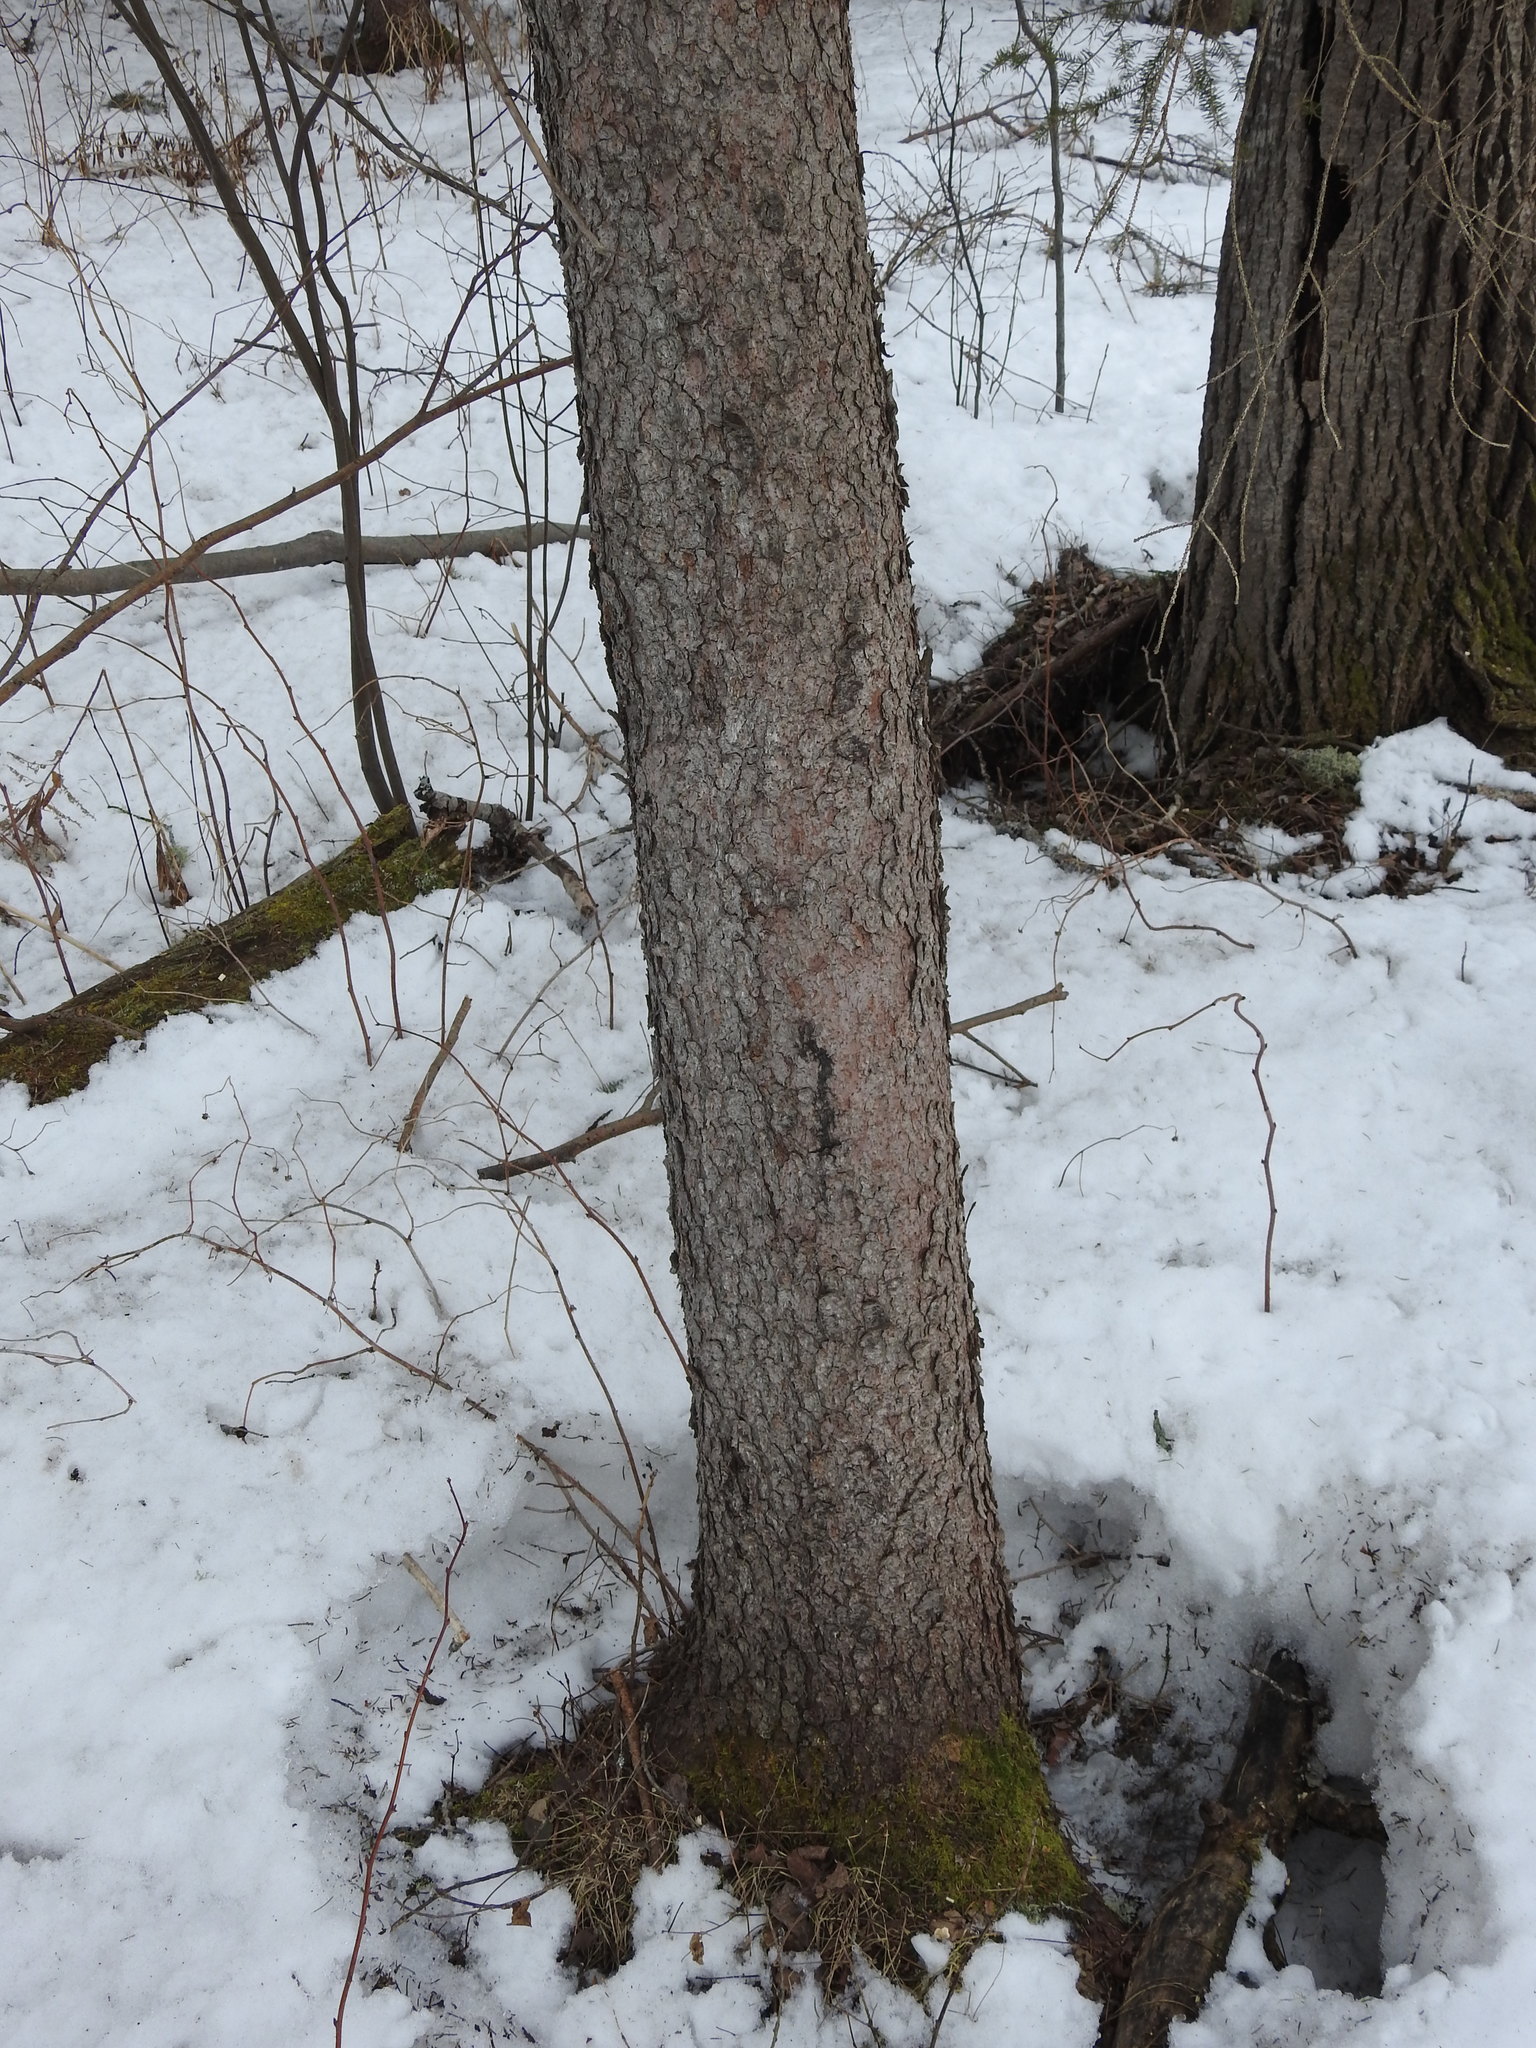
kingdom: Plantae
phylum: Tracheophyta
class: Pinopsida
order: Pinales
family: Pinaceae
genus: Picea
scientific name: Picea glauca
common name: White spruce
